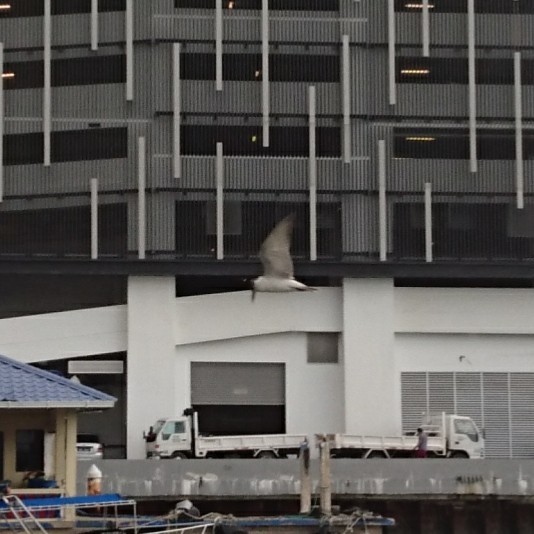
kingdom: Animalia
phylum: Chordata
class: Aves
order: Charadriiformes
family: Laridae
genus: Chlidonias
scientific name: Chlidonias hybrida
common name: Whiskered tern
